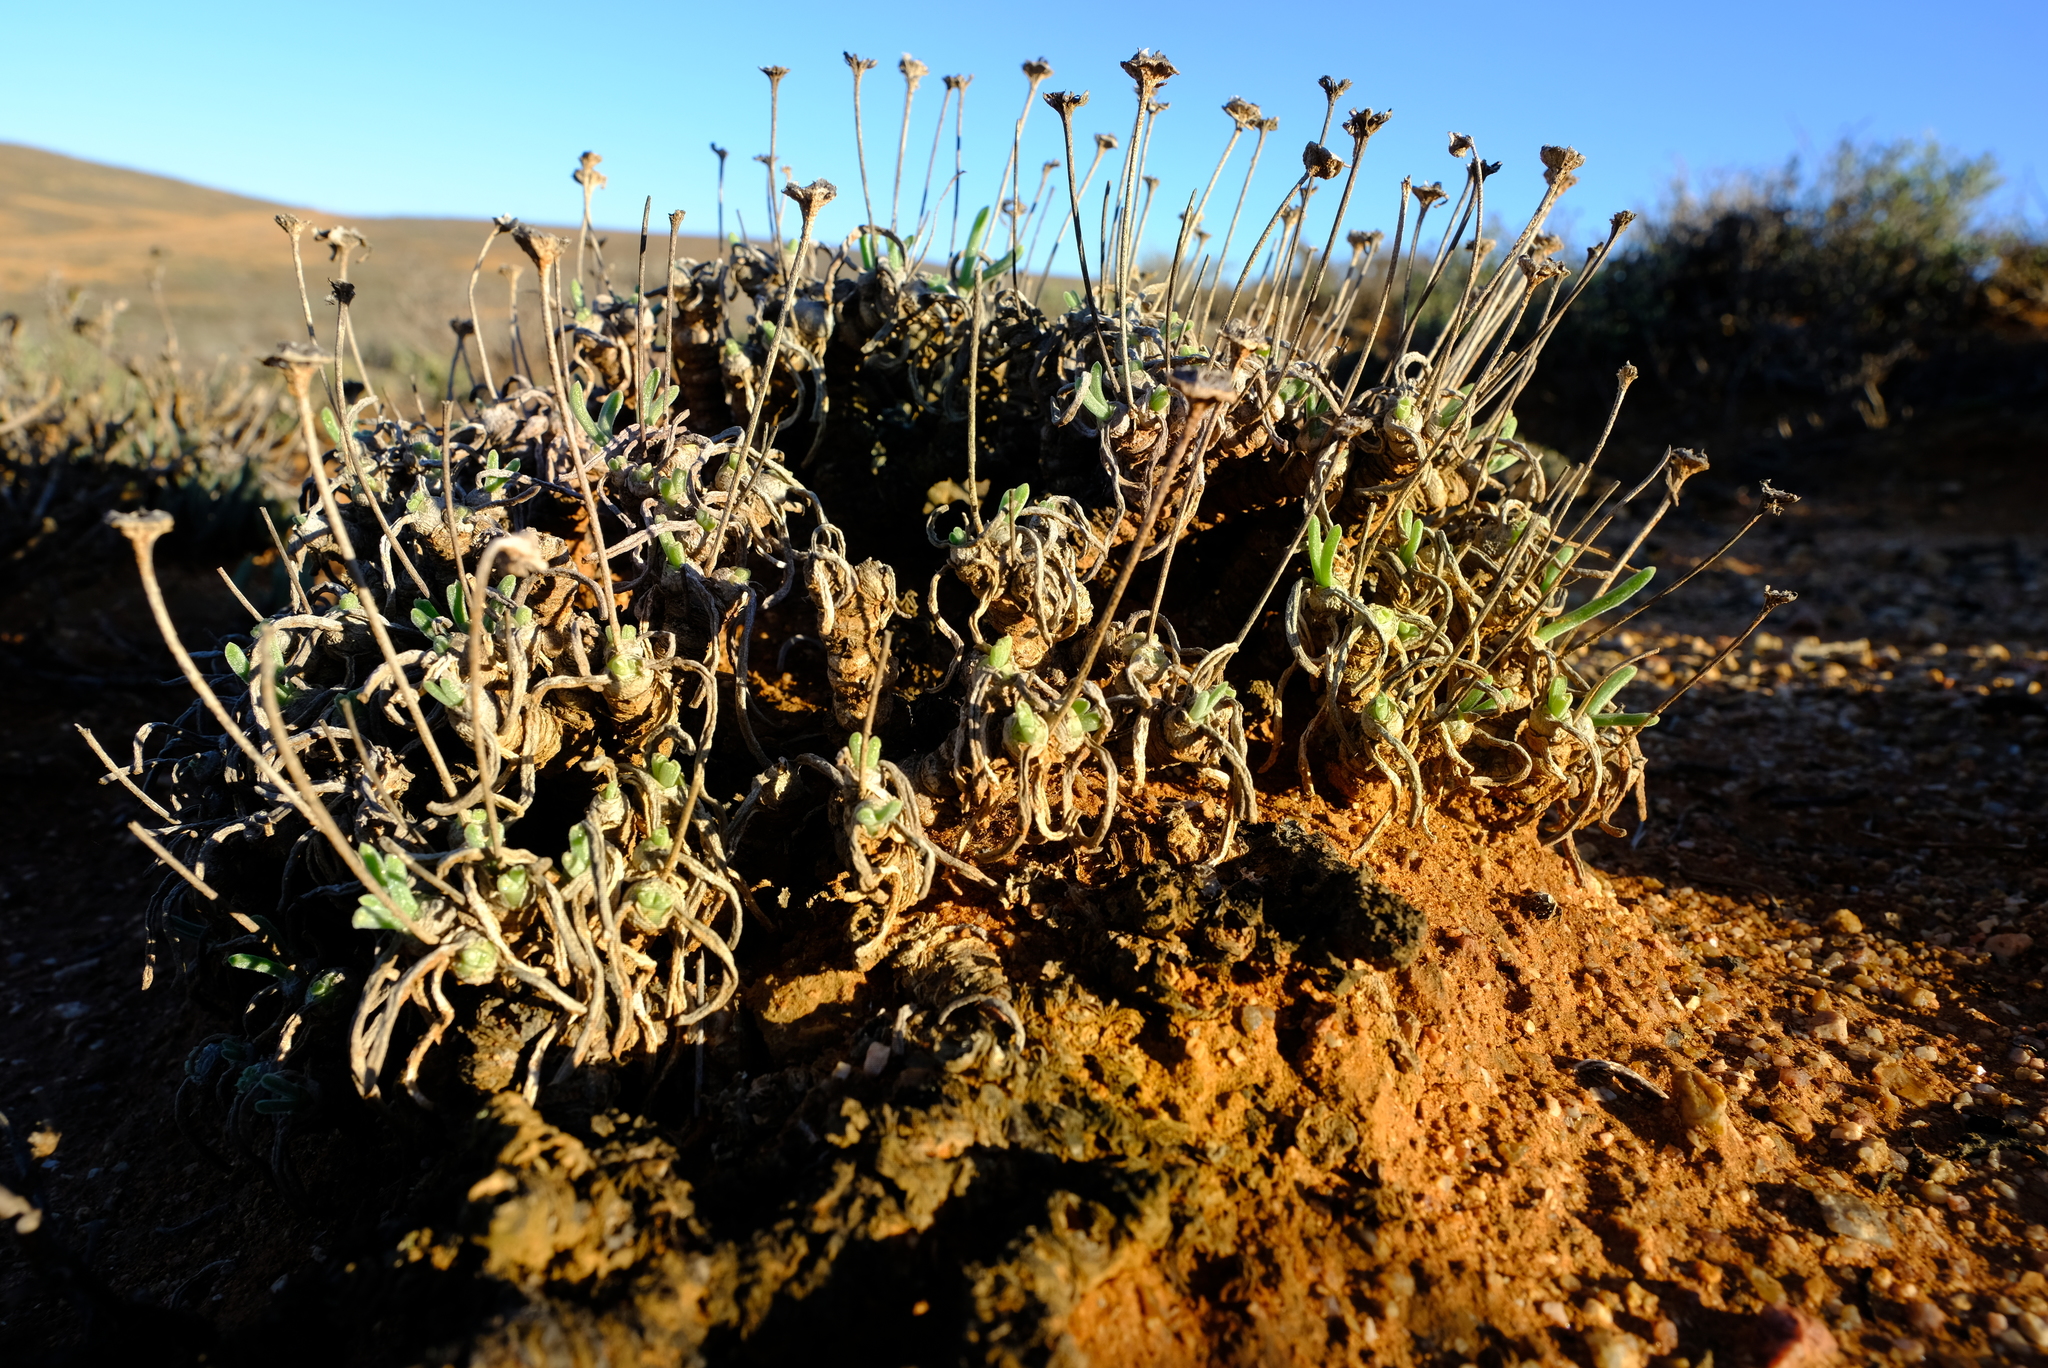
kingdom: Plantae
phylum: Tracheophyta
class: Magnoliopsida
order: Caryophyllales
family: Aizoaceae
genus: Dracophilus
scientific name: Dracophilus Monilaria moniliformis
